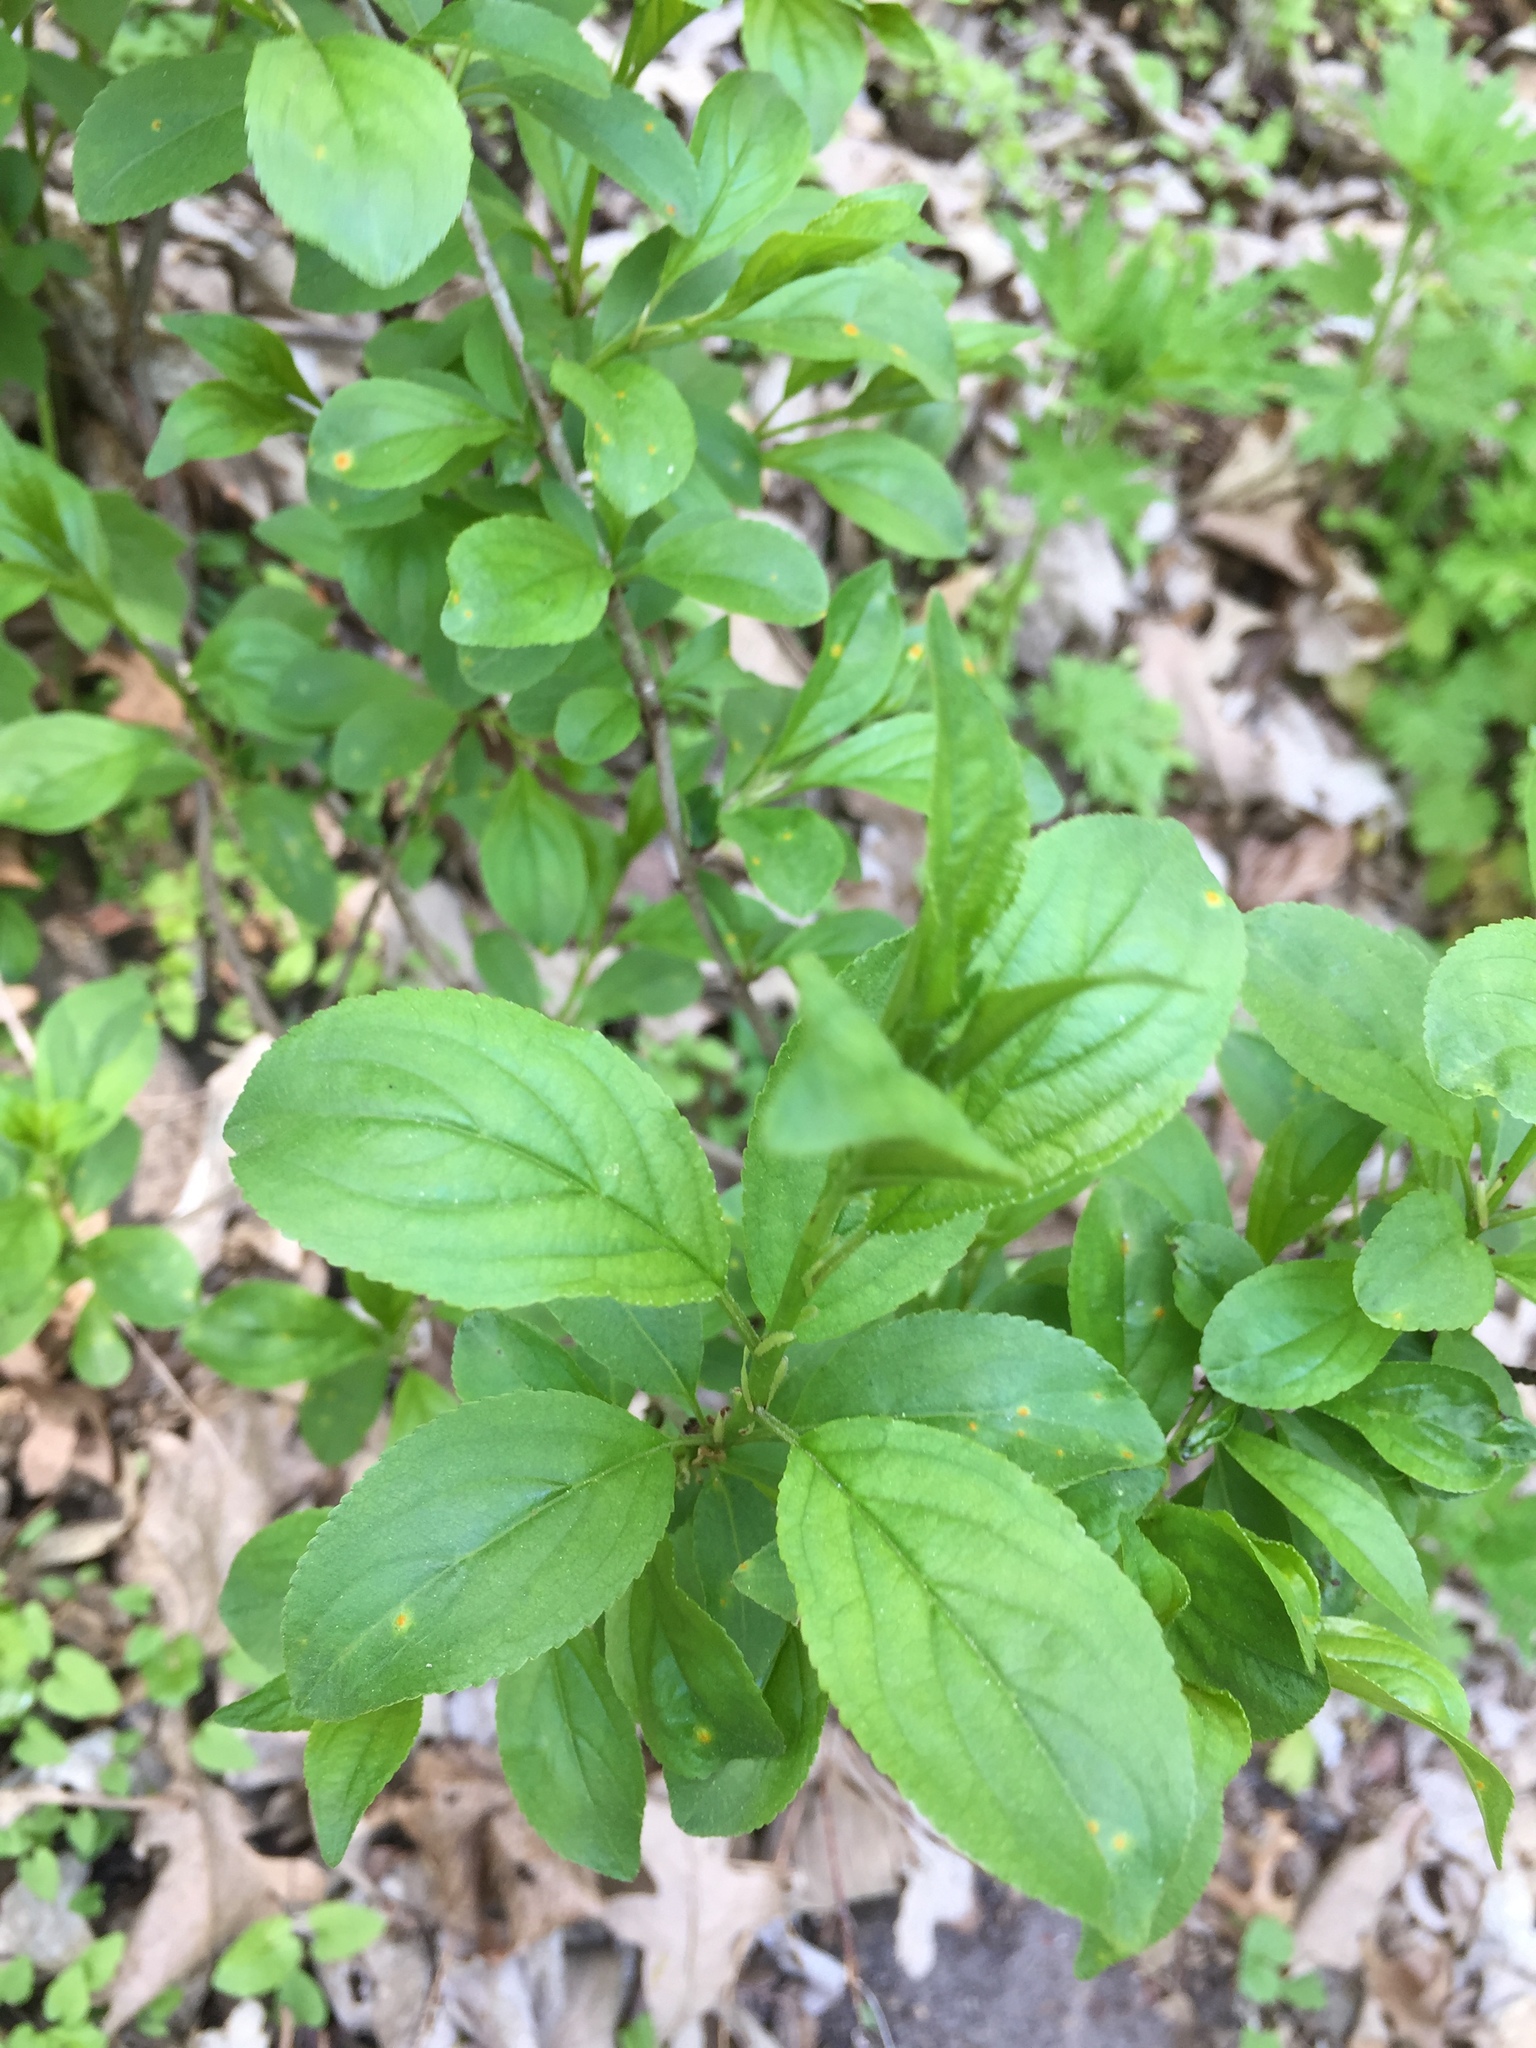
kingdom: Plantae
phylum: Tracheophyta
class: Magnoliopsida
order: Rosales
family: Rhamnaceae
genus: Rhamnus
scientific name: Rhamnus cathartica
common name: Common buckthorn
